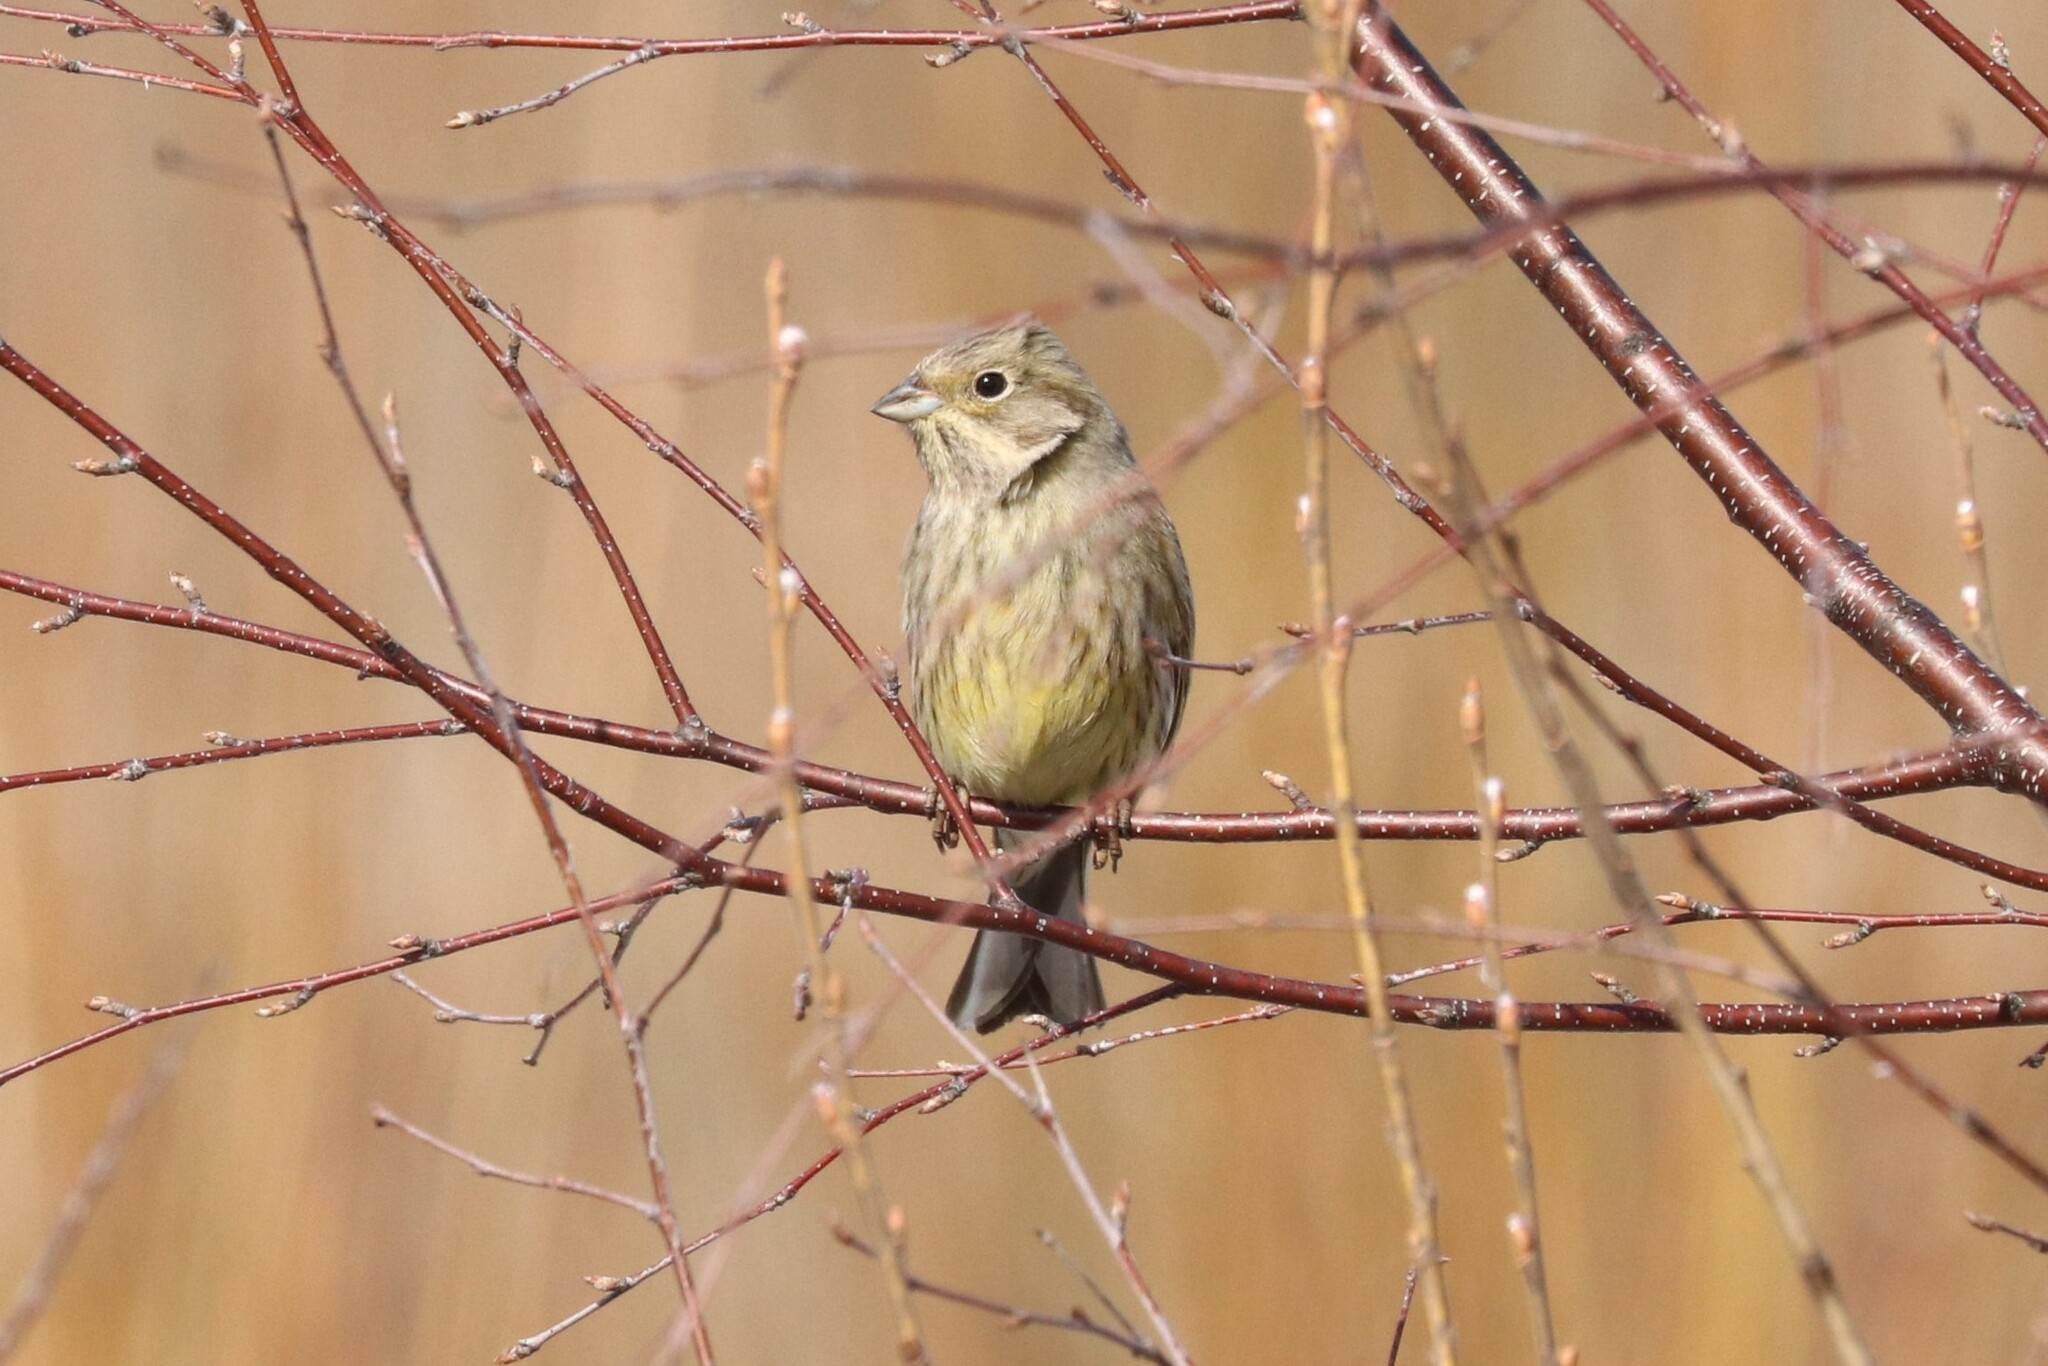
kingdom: Animalia
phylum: Chordata
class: Aves
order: Passeriformes
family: Emberizidae
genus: Emberiza
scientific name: Emberiza citrinella
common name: Yellowhammer
